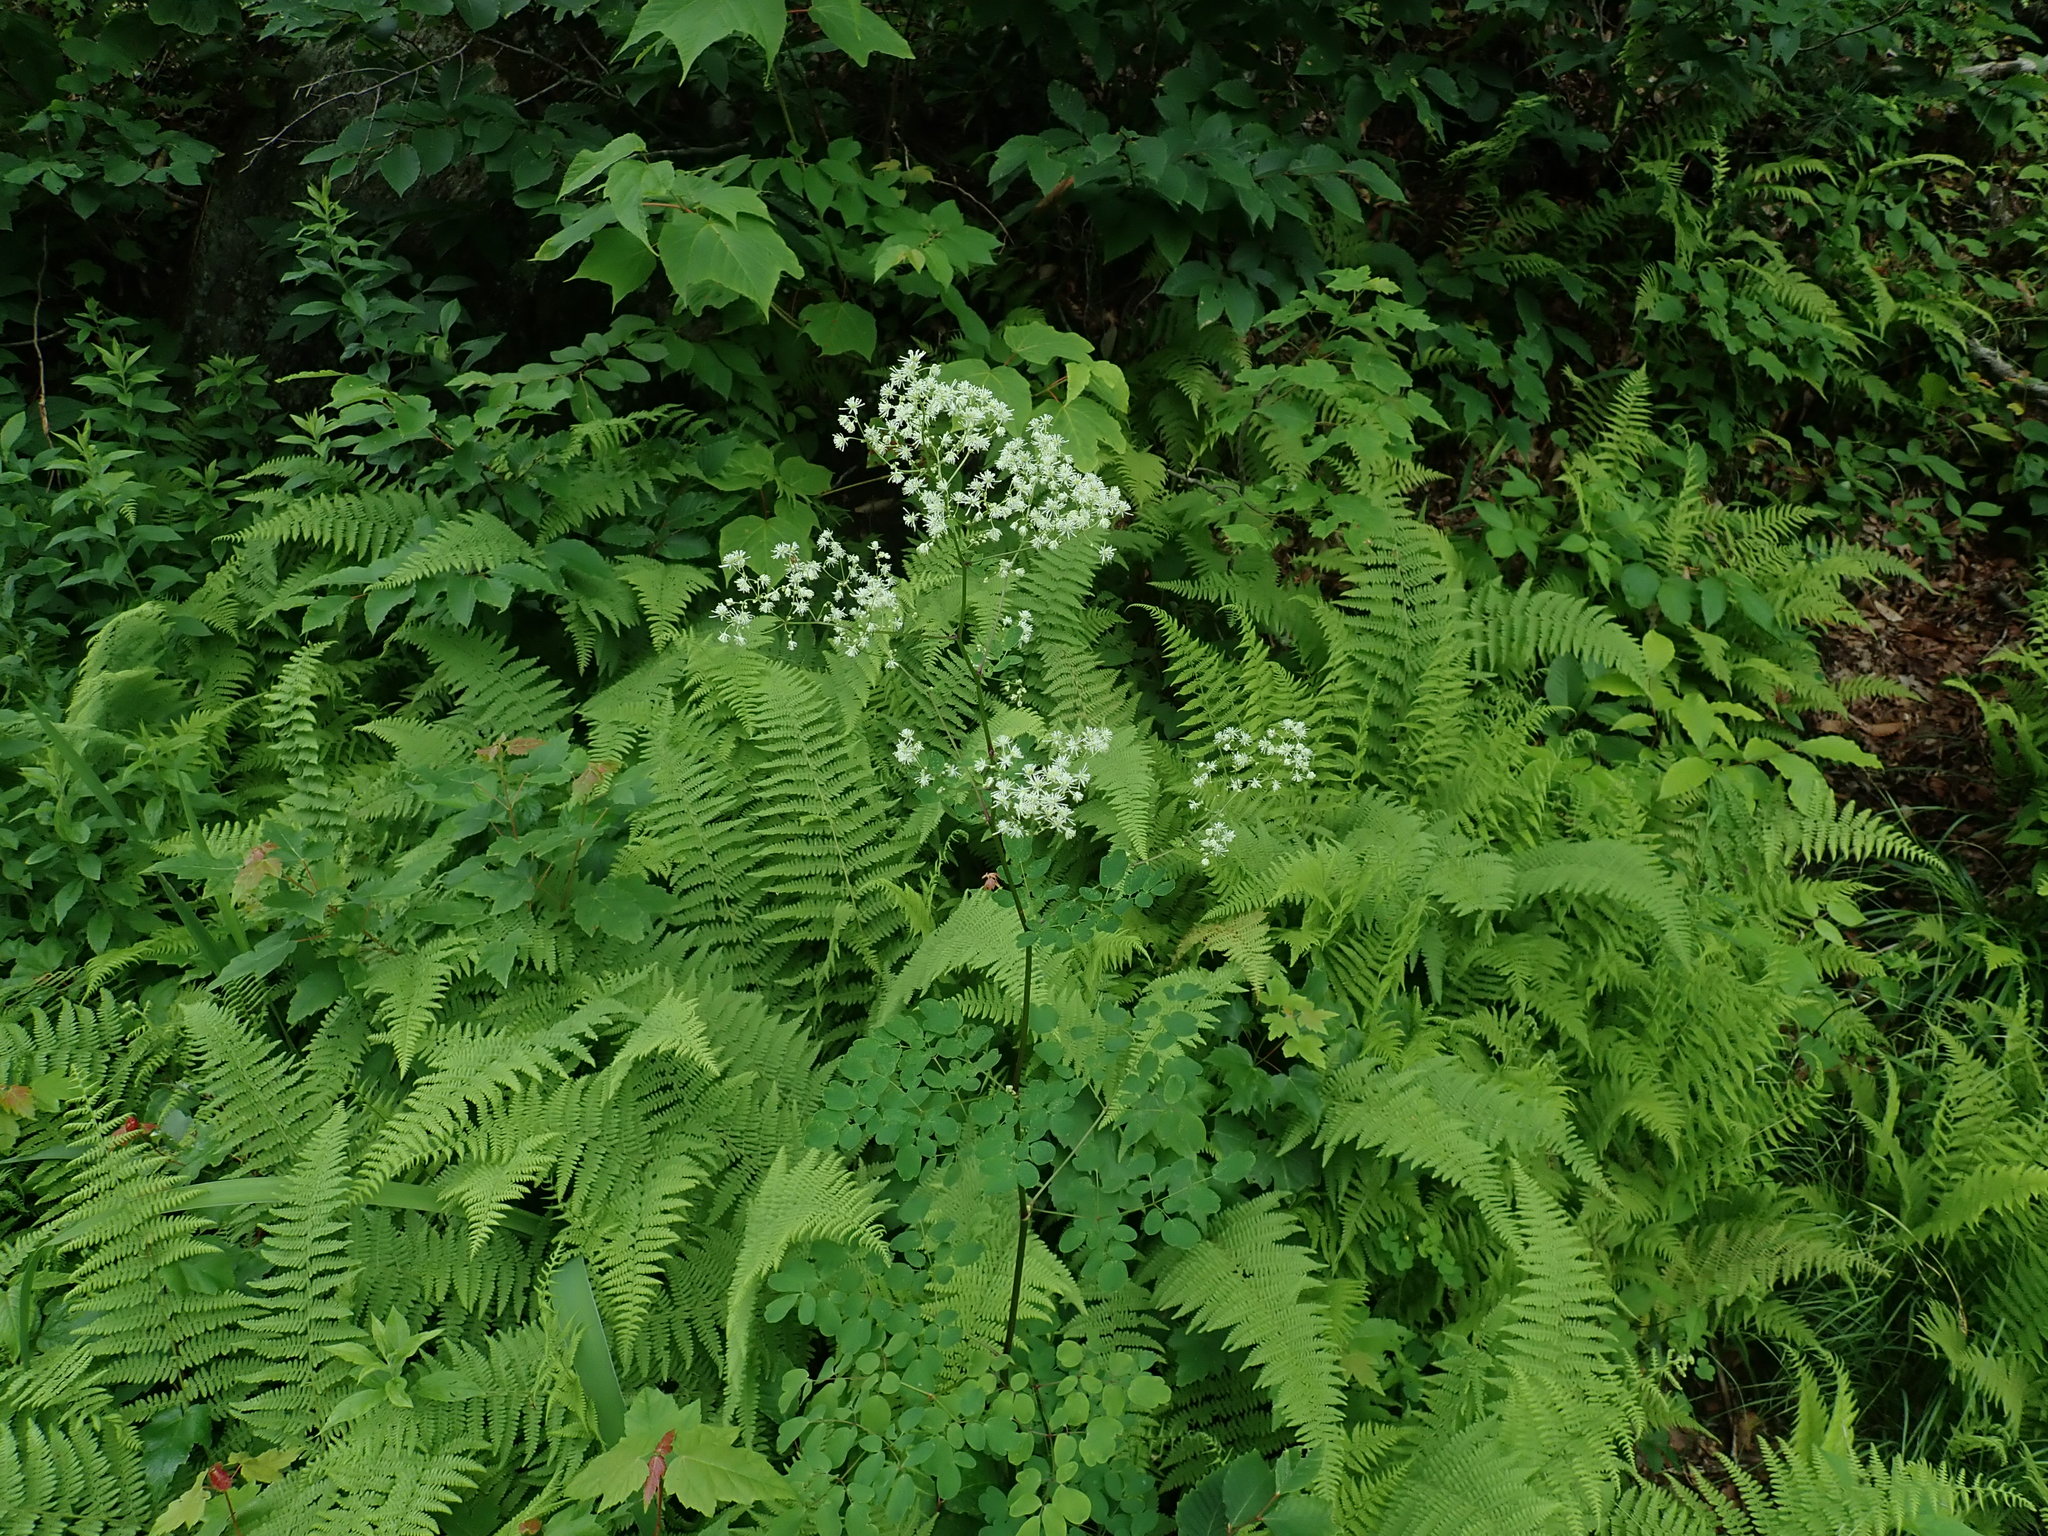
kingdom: Plantae
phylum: Tracheophyta
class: Magnoliopsida
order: Ranunculales
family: Ranunculaceae
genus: Thalictrum
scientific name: Thalictrum pubescens
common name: King-of-the-meadow
